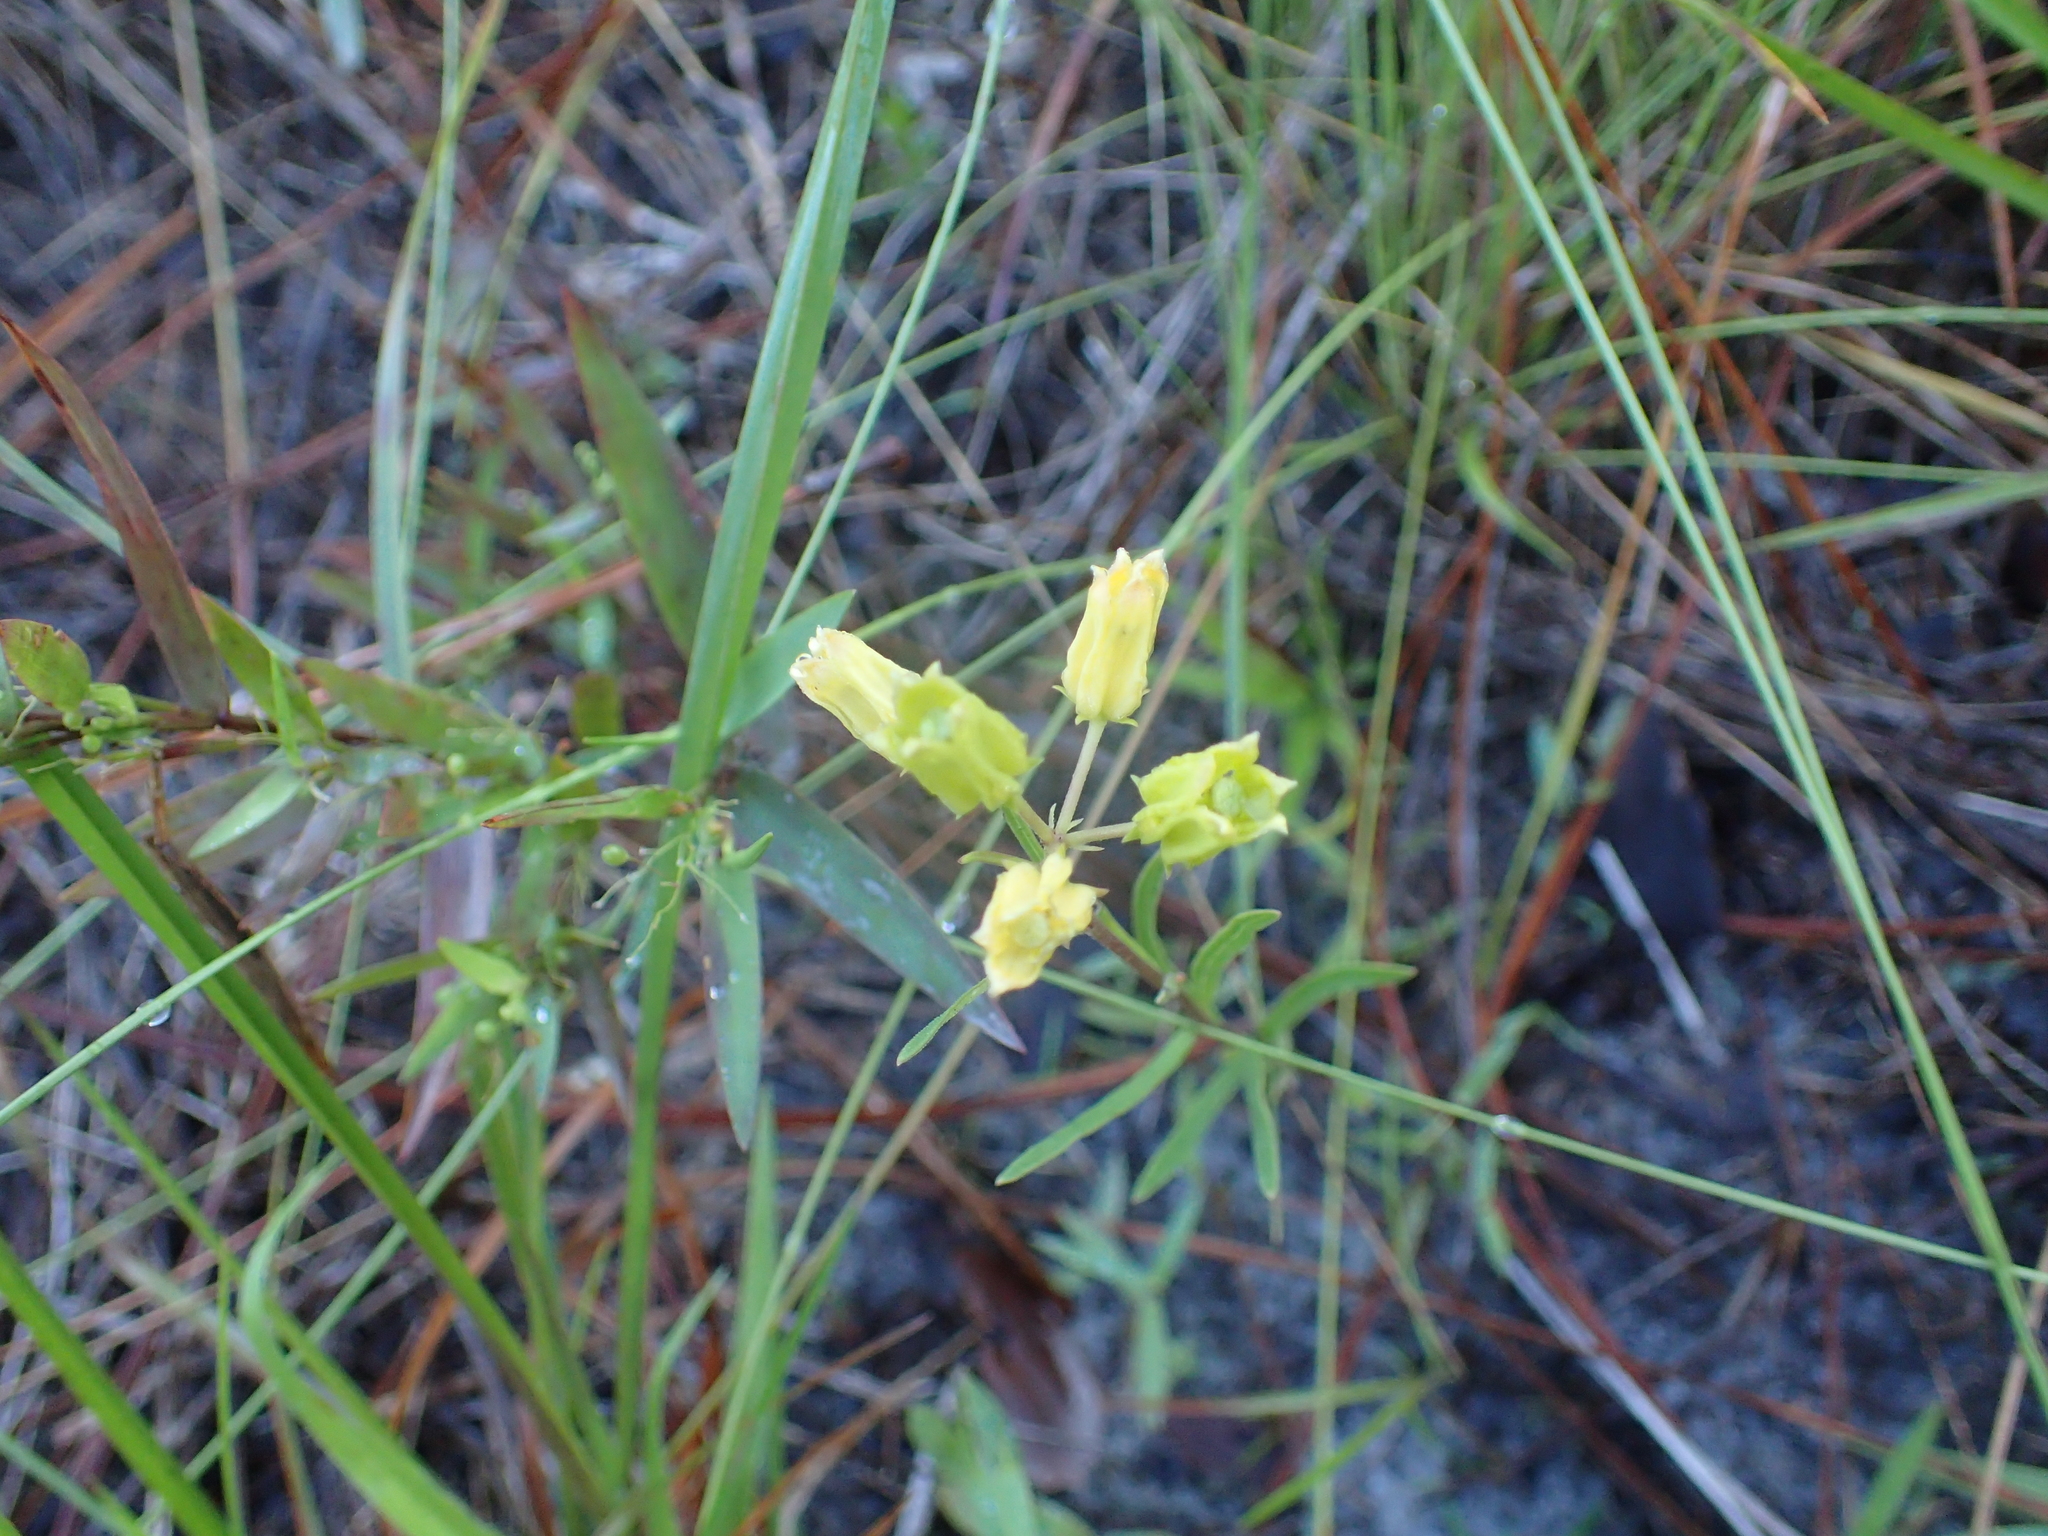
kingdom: Plantae
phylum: Tracheophyta
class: Magnoliopsida
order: Gentianales
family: Apocynaceae
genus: Asclepias
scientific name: Asclepias pedicellata
